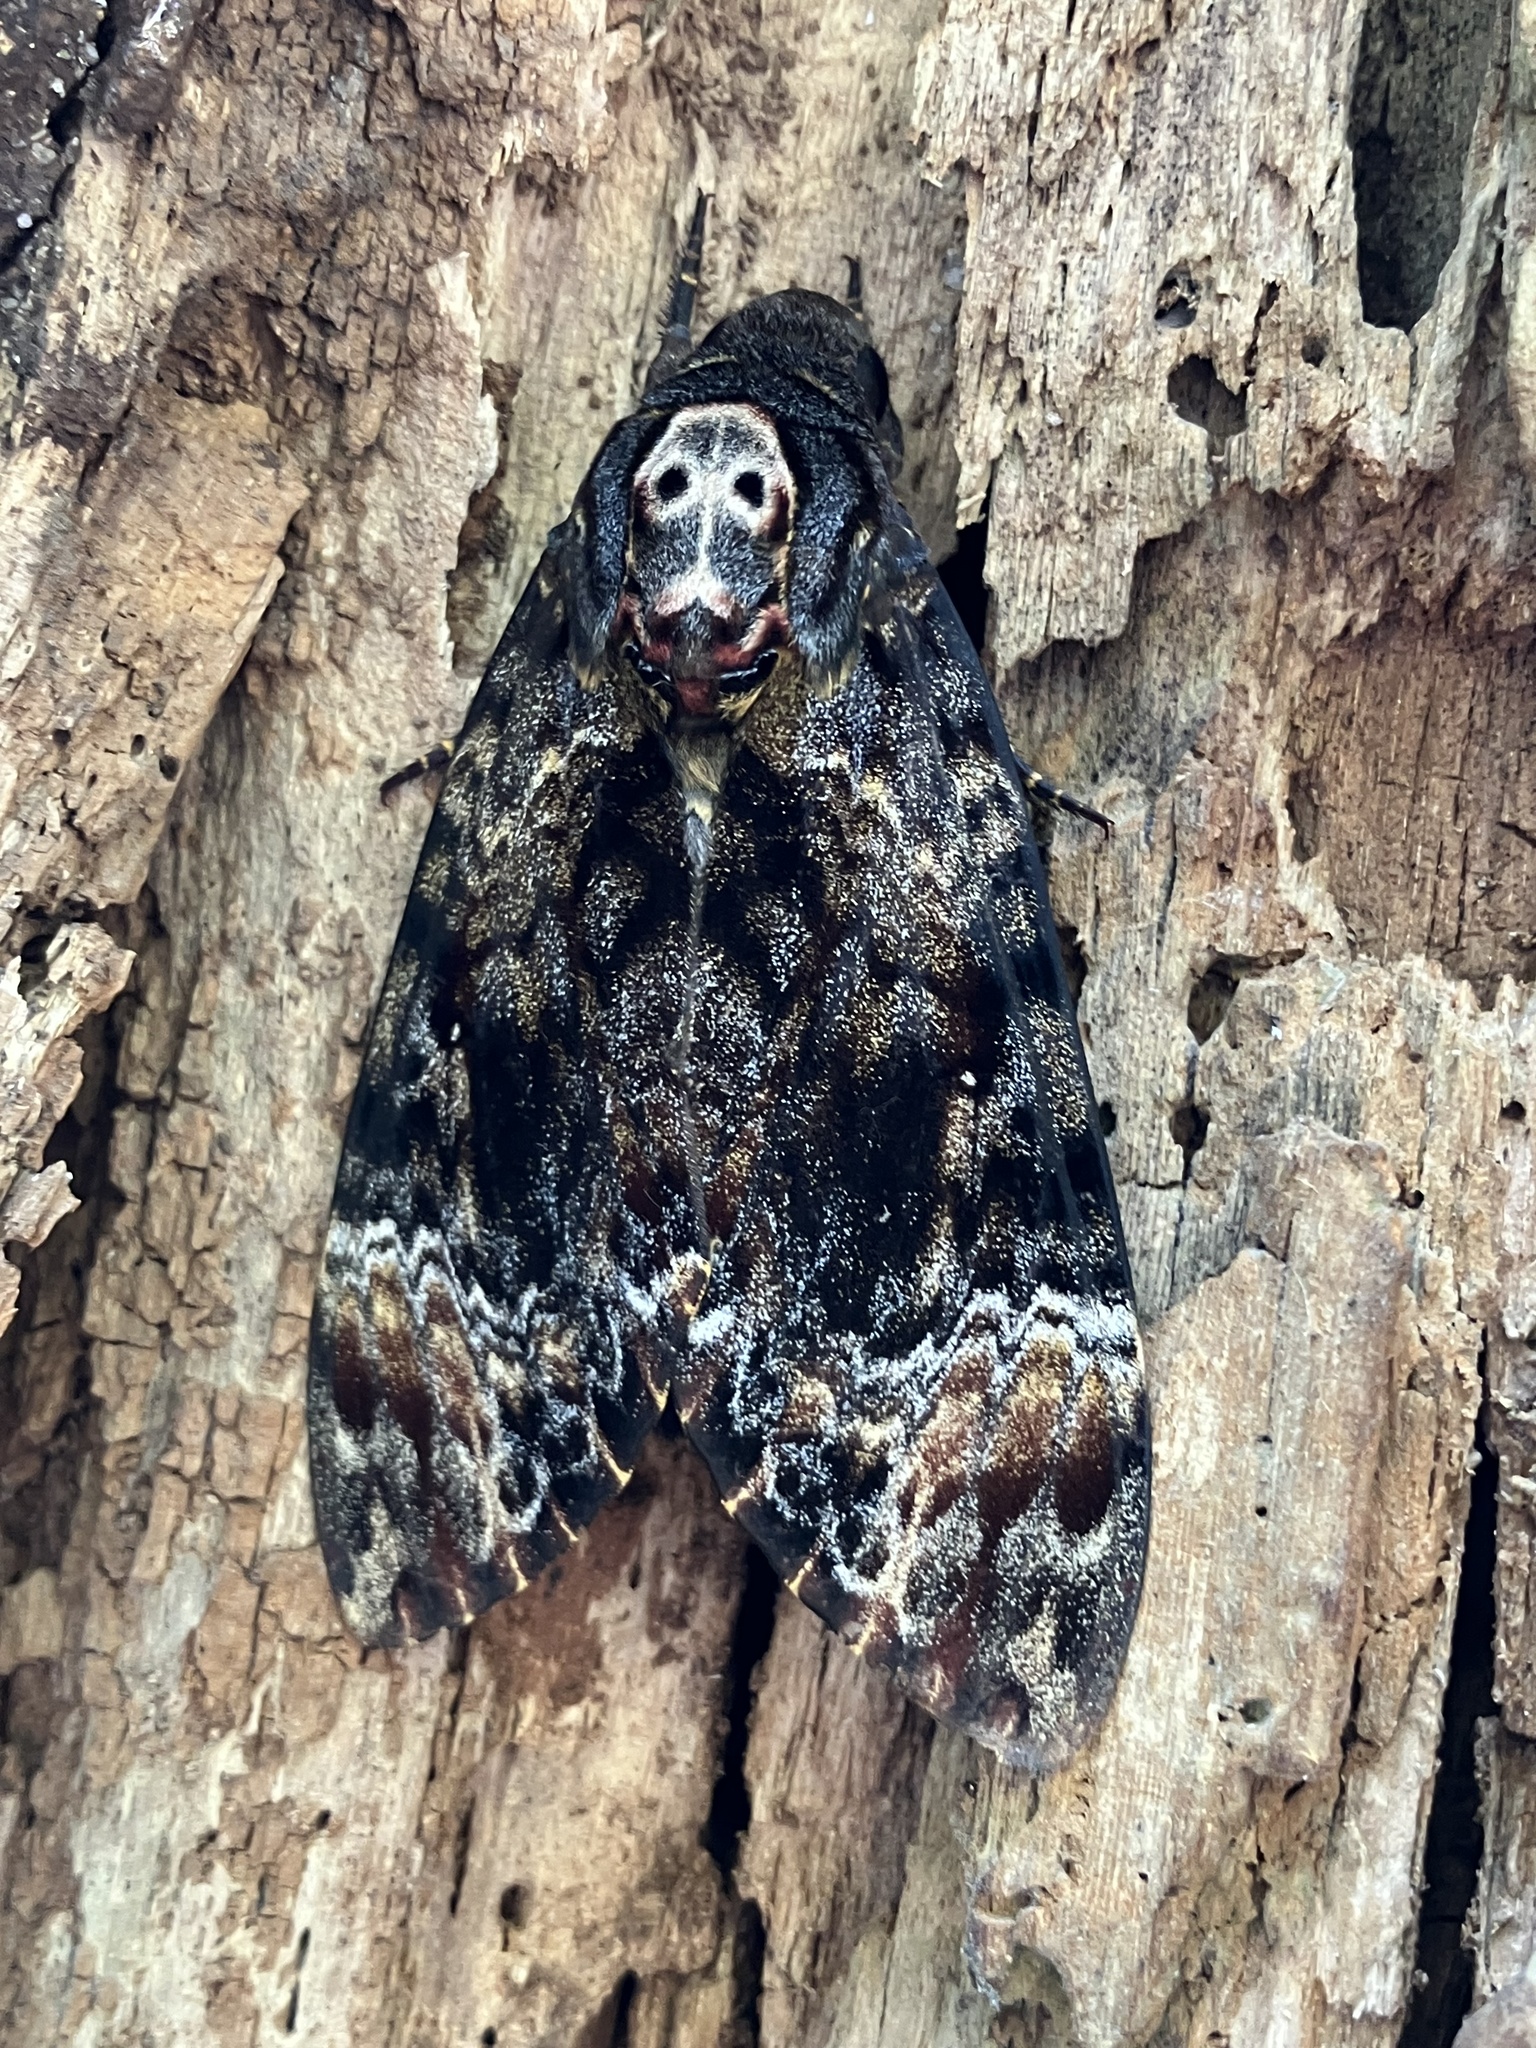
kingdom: Animalia
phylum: Arthropoda
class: Insecta
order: Lepidoptera
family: Sphingidae
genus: Acherontia
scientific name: Acherontia lachesis
